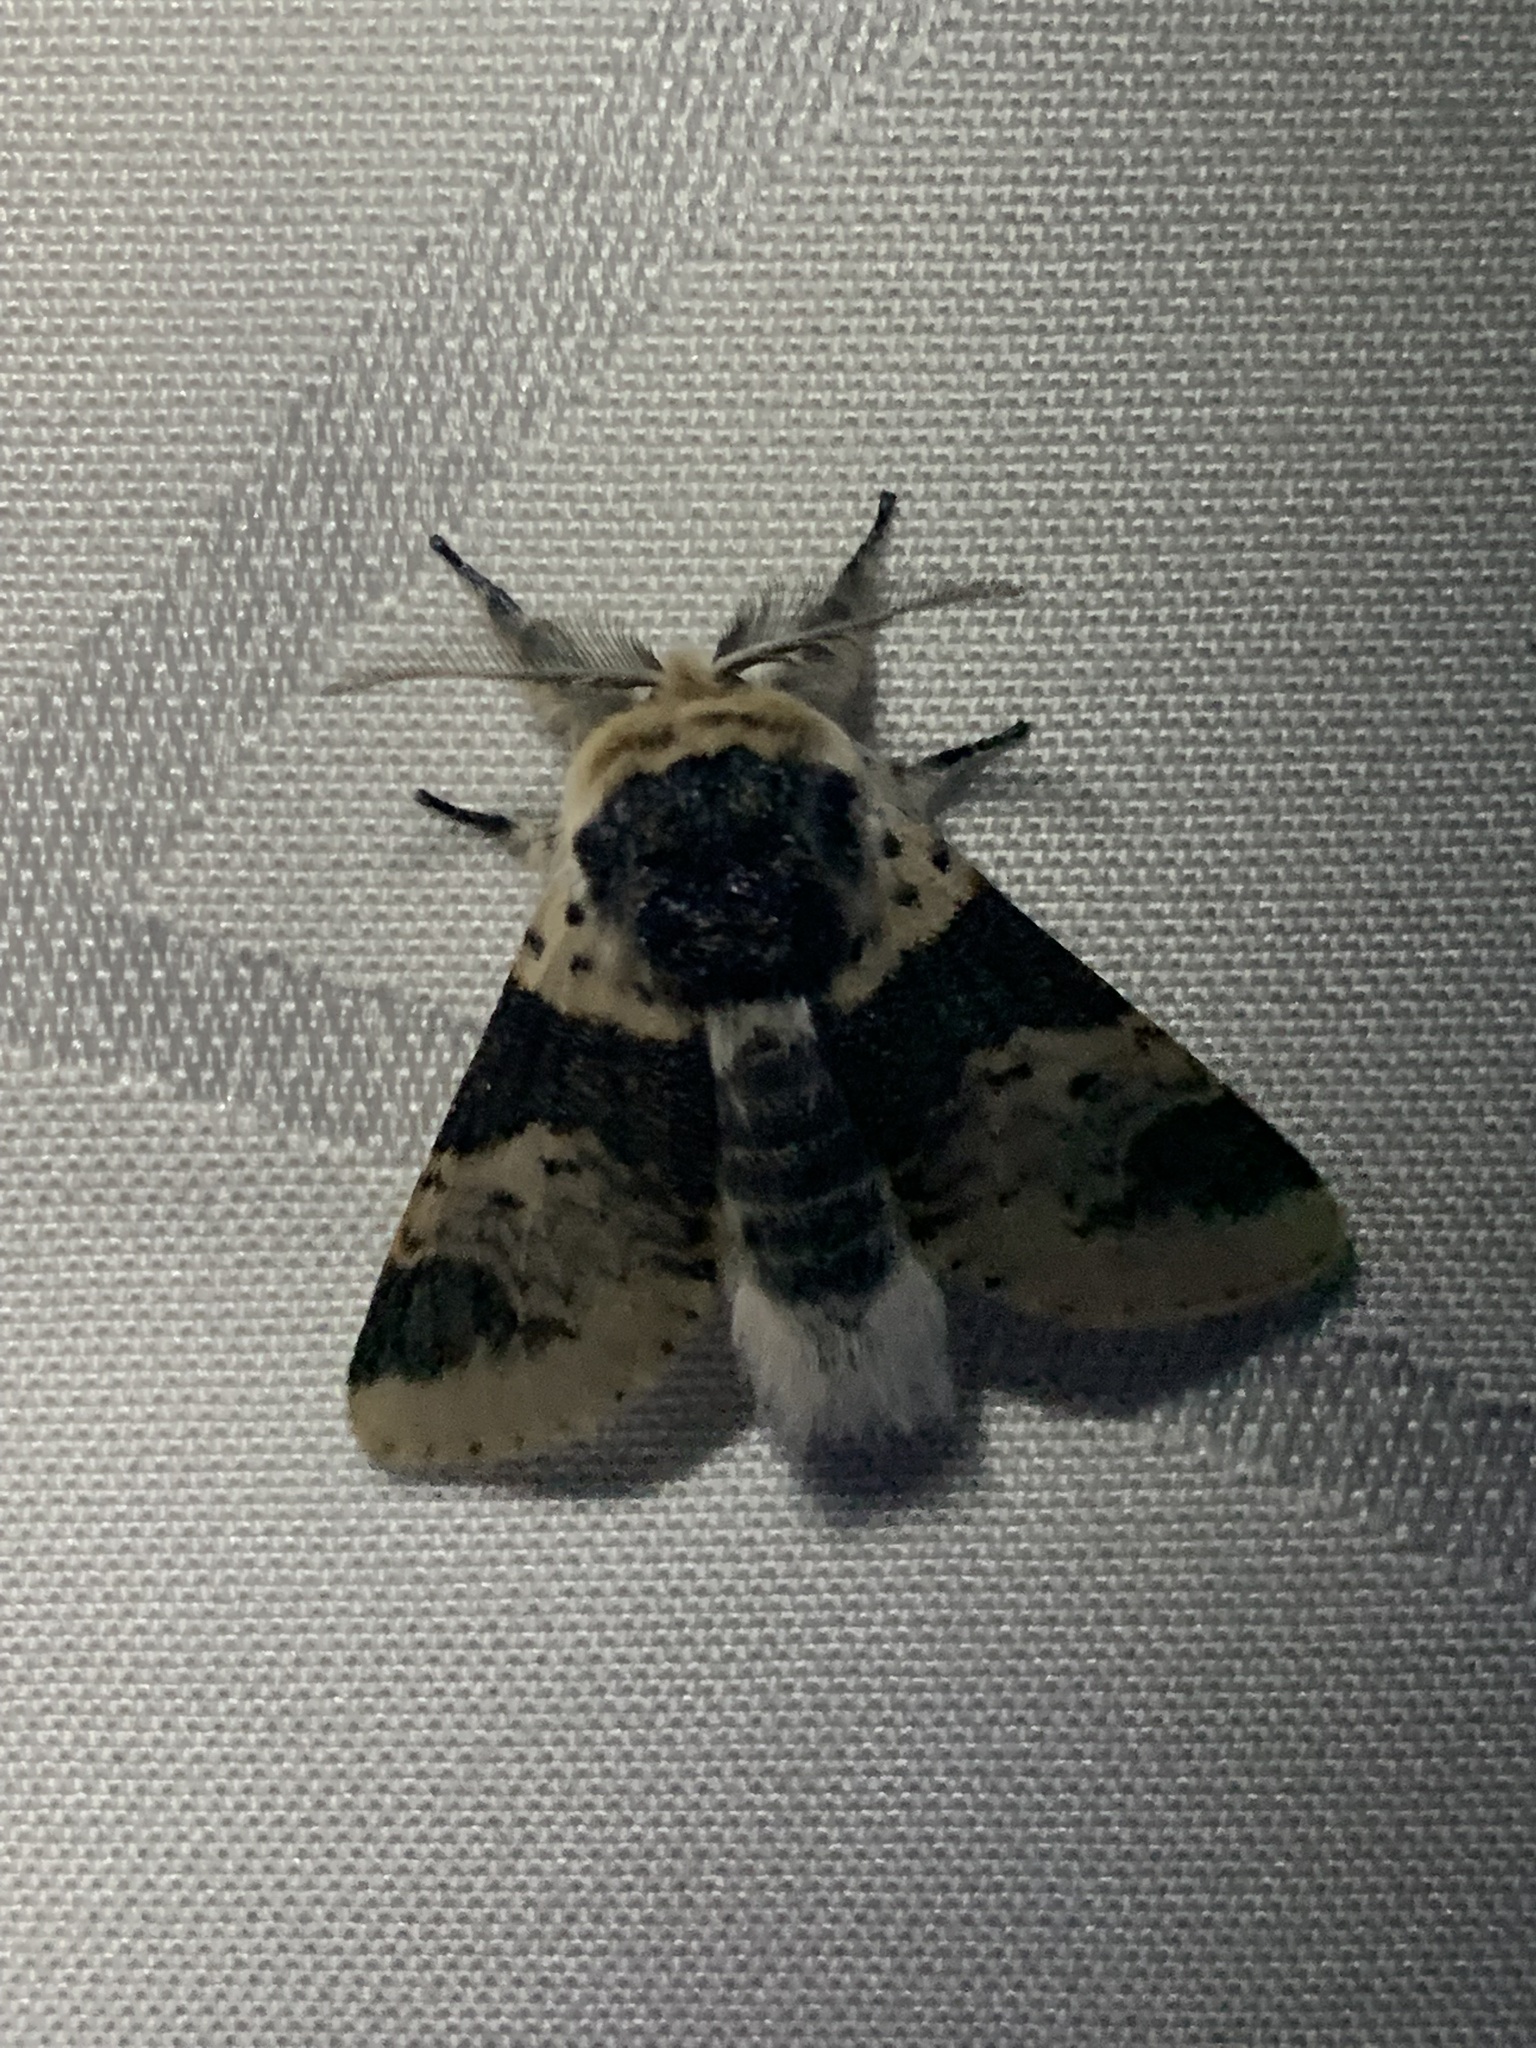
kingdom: Animalia
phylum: Arthropoda
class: Insecta
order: Lepidoptera
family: Notodontidae
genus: Furcula
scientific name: Furcula modesta
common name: Modest furcula moth
